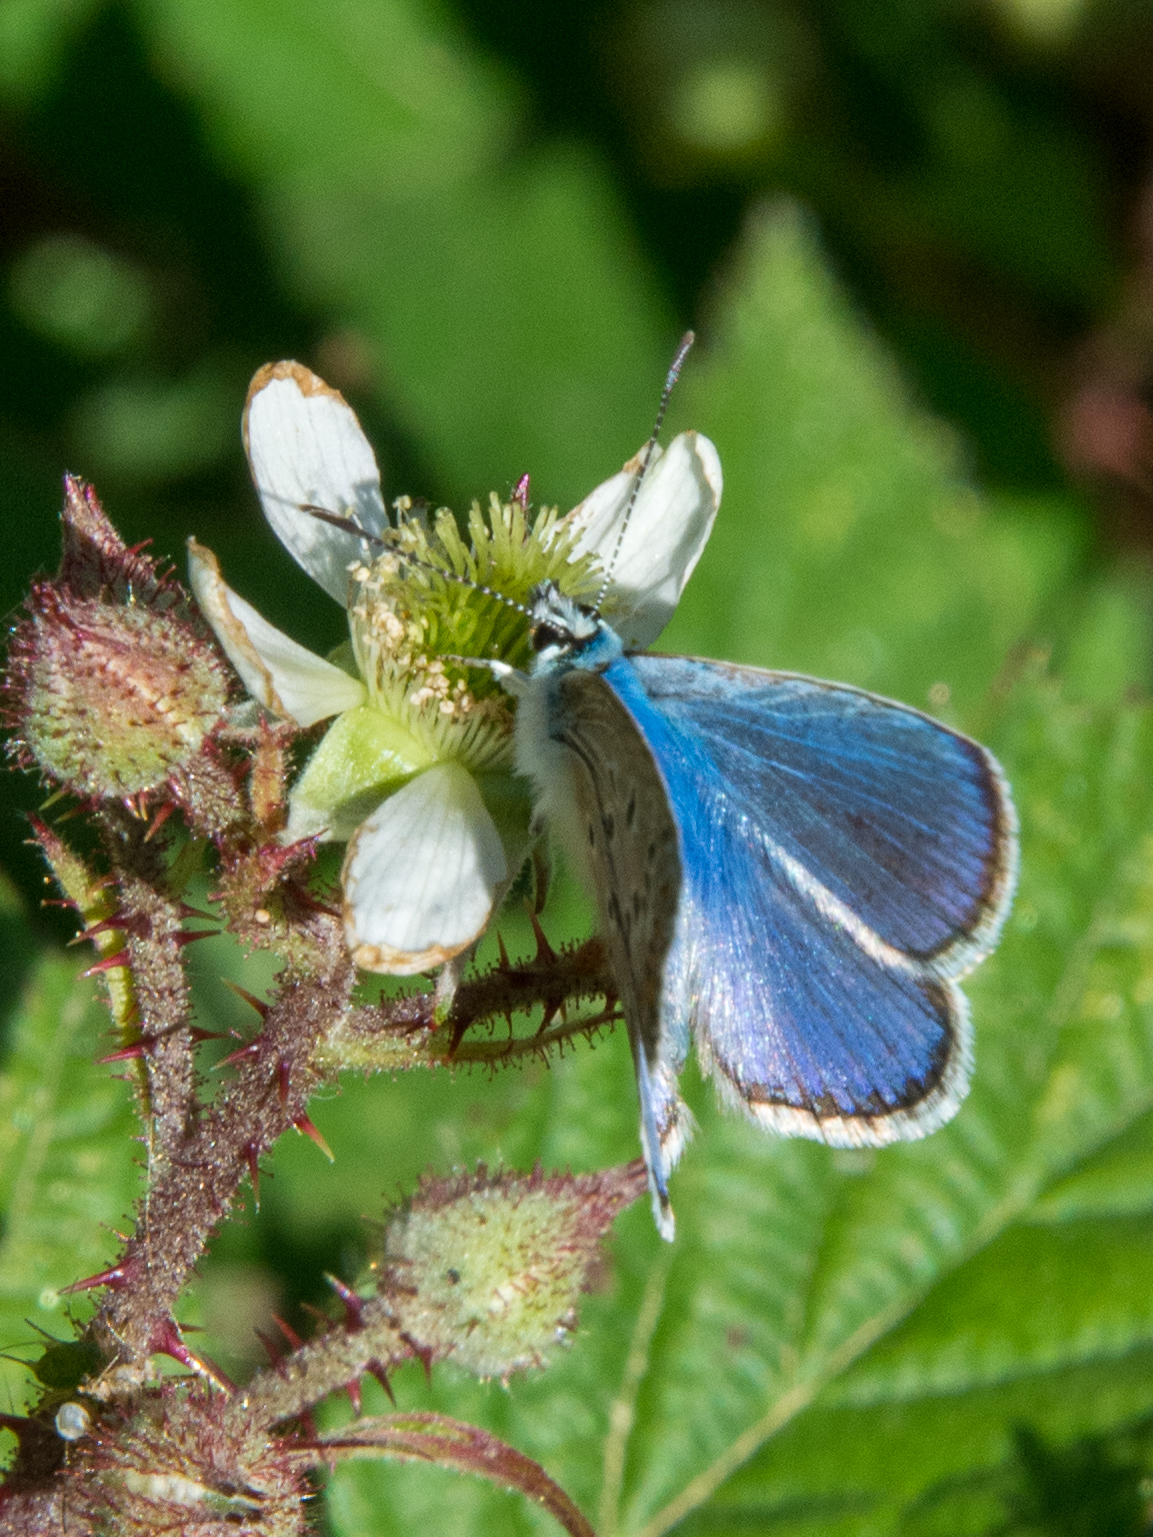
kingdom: Animalia
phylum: Arthropoda
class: Insecta
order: Lepidoptera
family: Lycaenidae
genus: Polyommatus
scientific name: Polyommatus celina
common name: Austaut's blue
